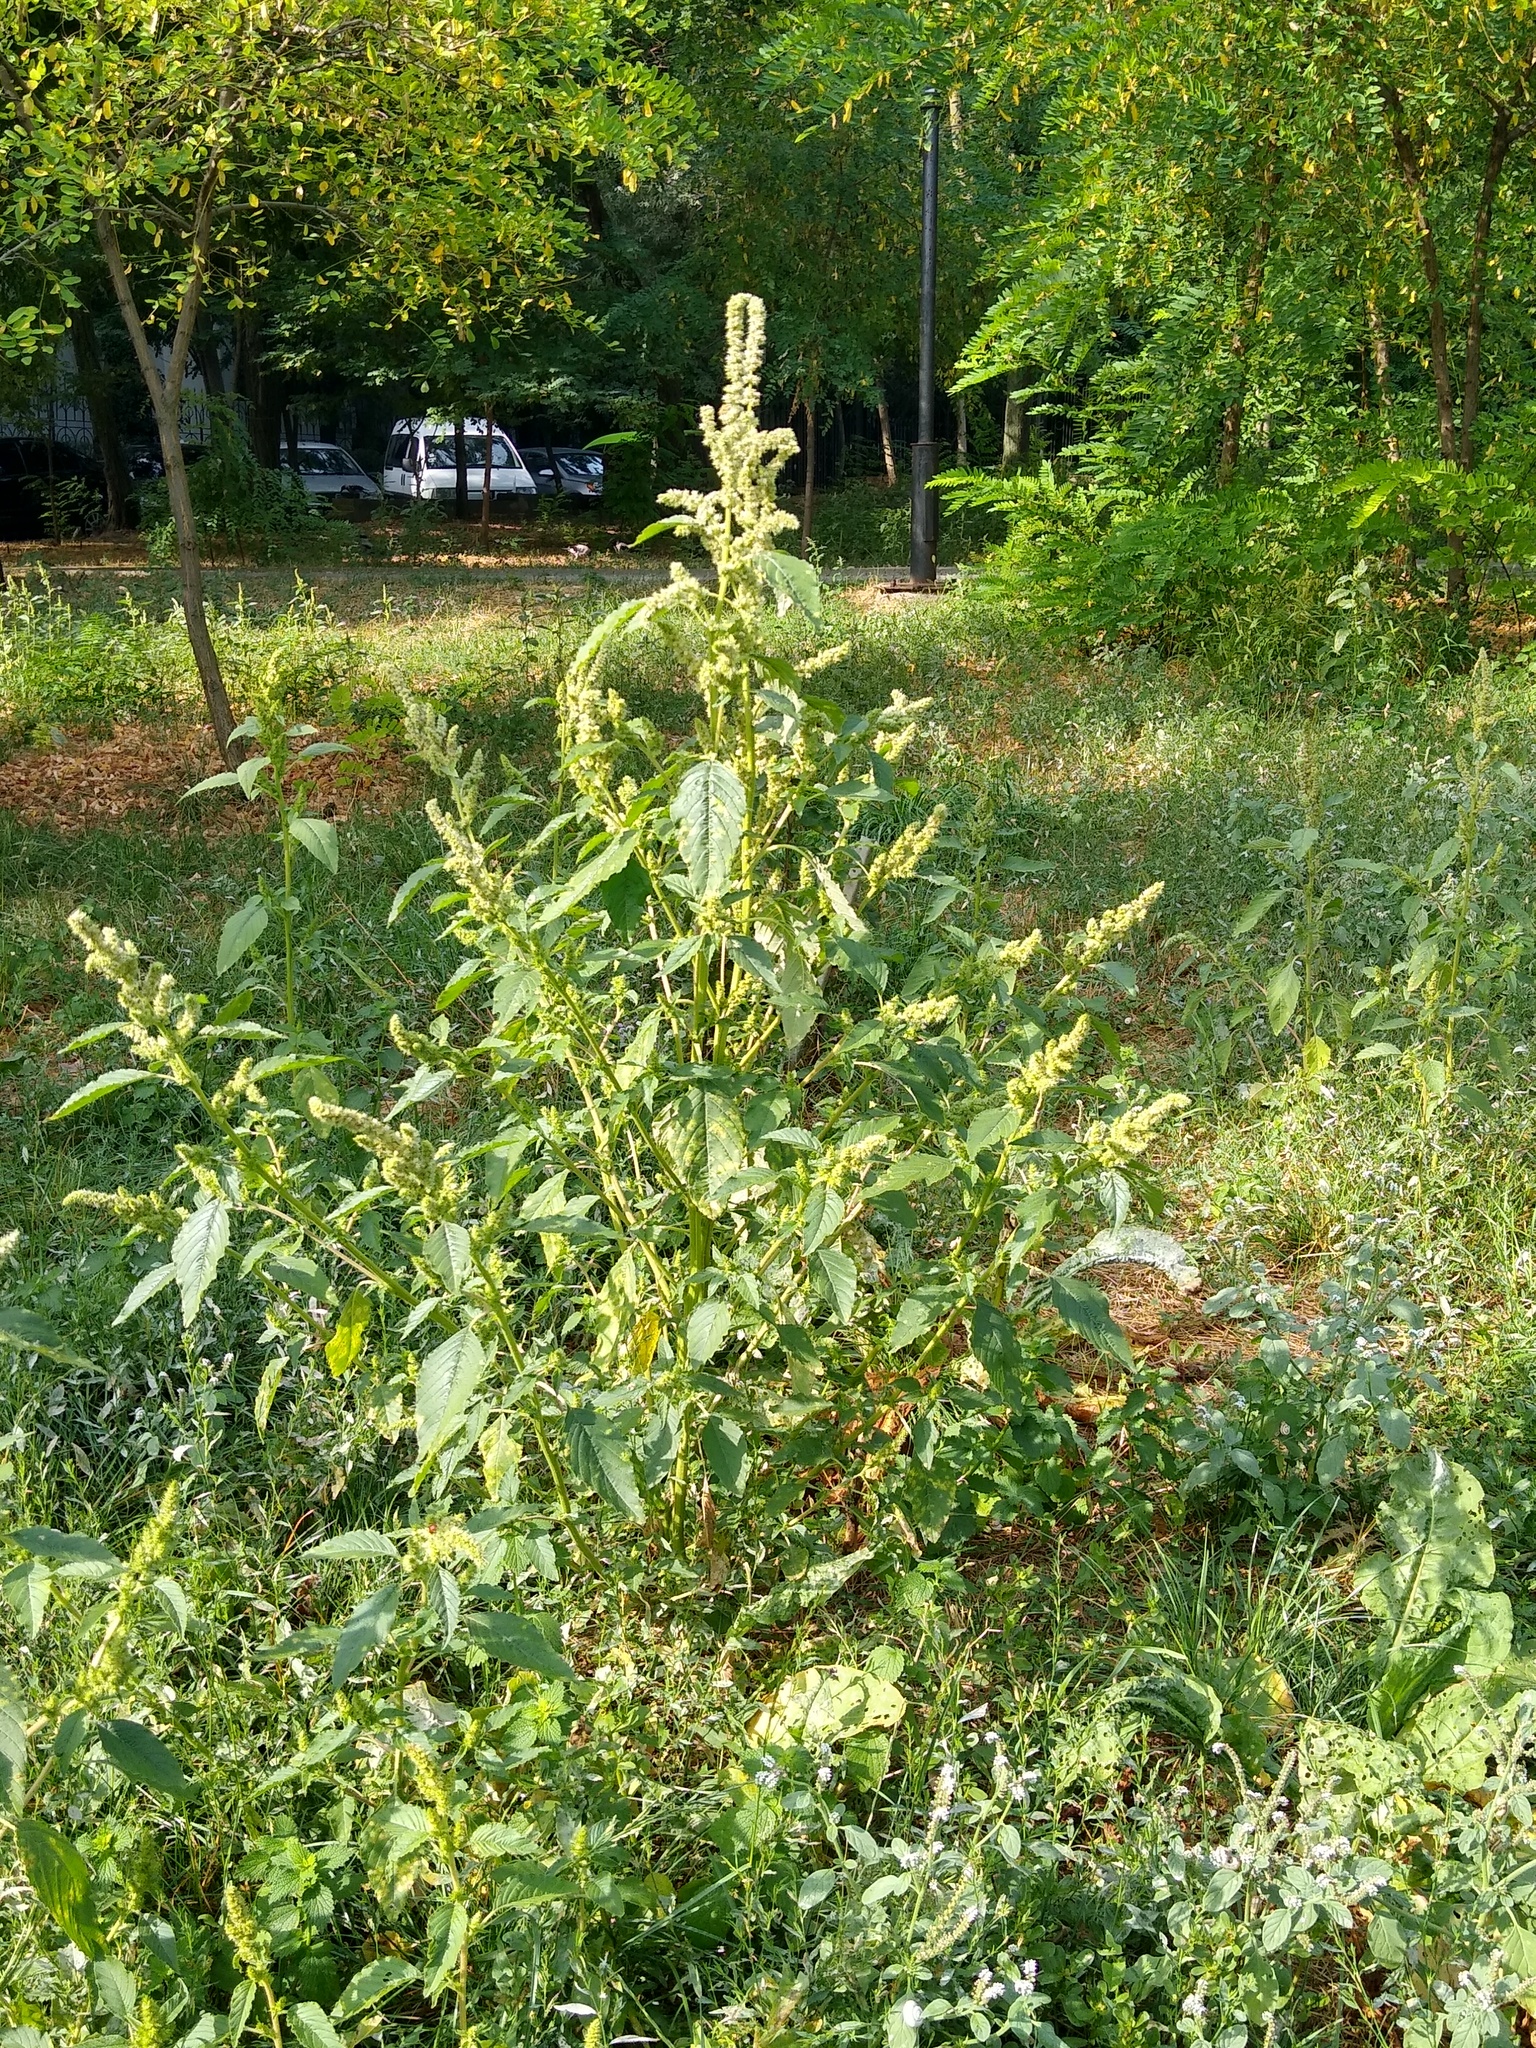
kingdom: Plantae
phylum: Tracheophyta
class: Magnoliopsida
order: Caryophyllales
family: Amaranthaceae
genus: Amaranthus
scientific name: Amaranthus retroflexus
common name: Redroot amaranth
